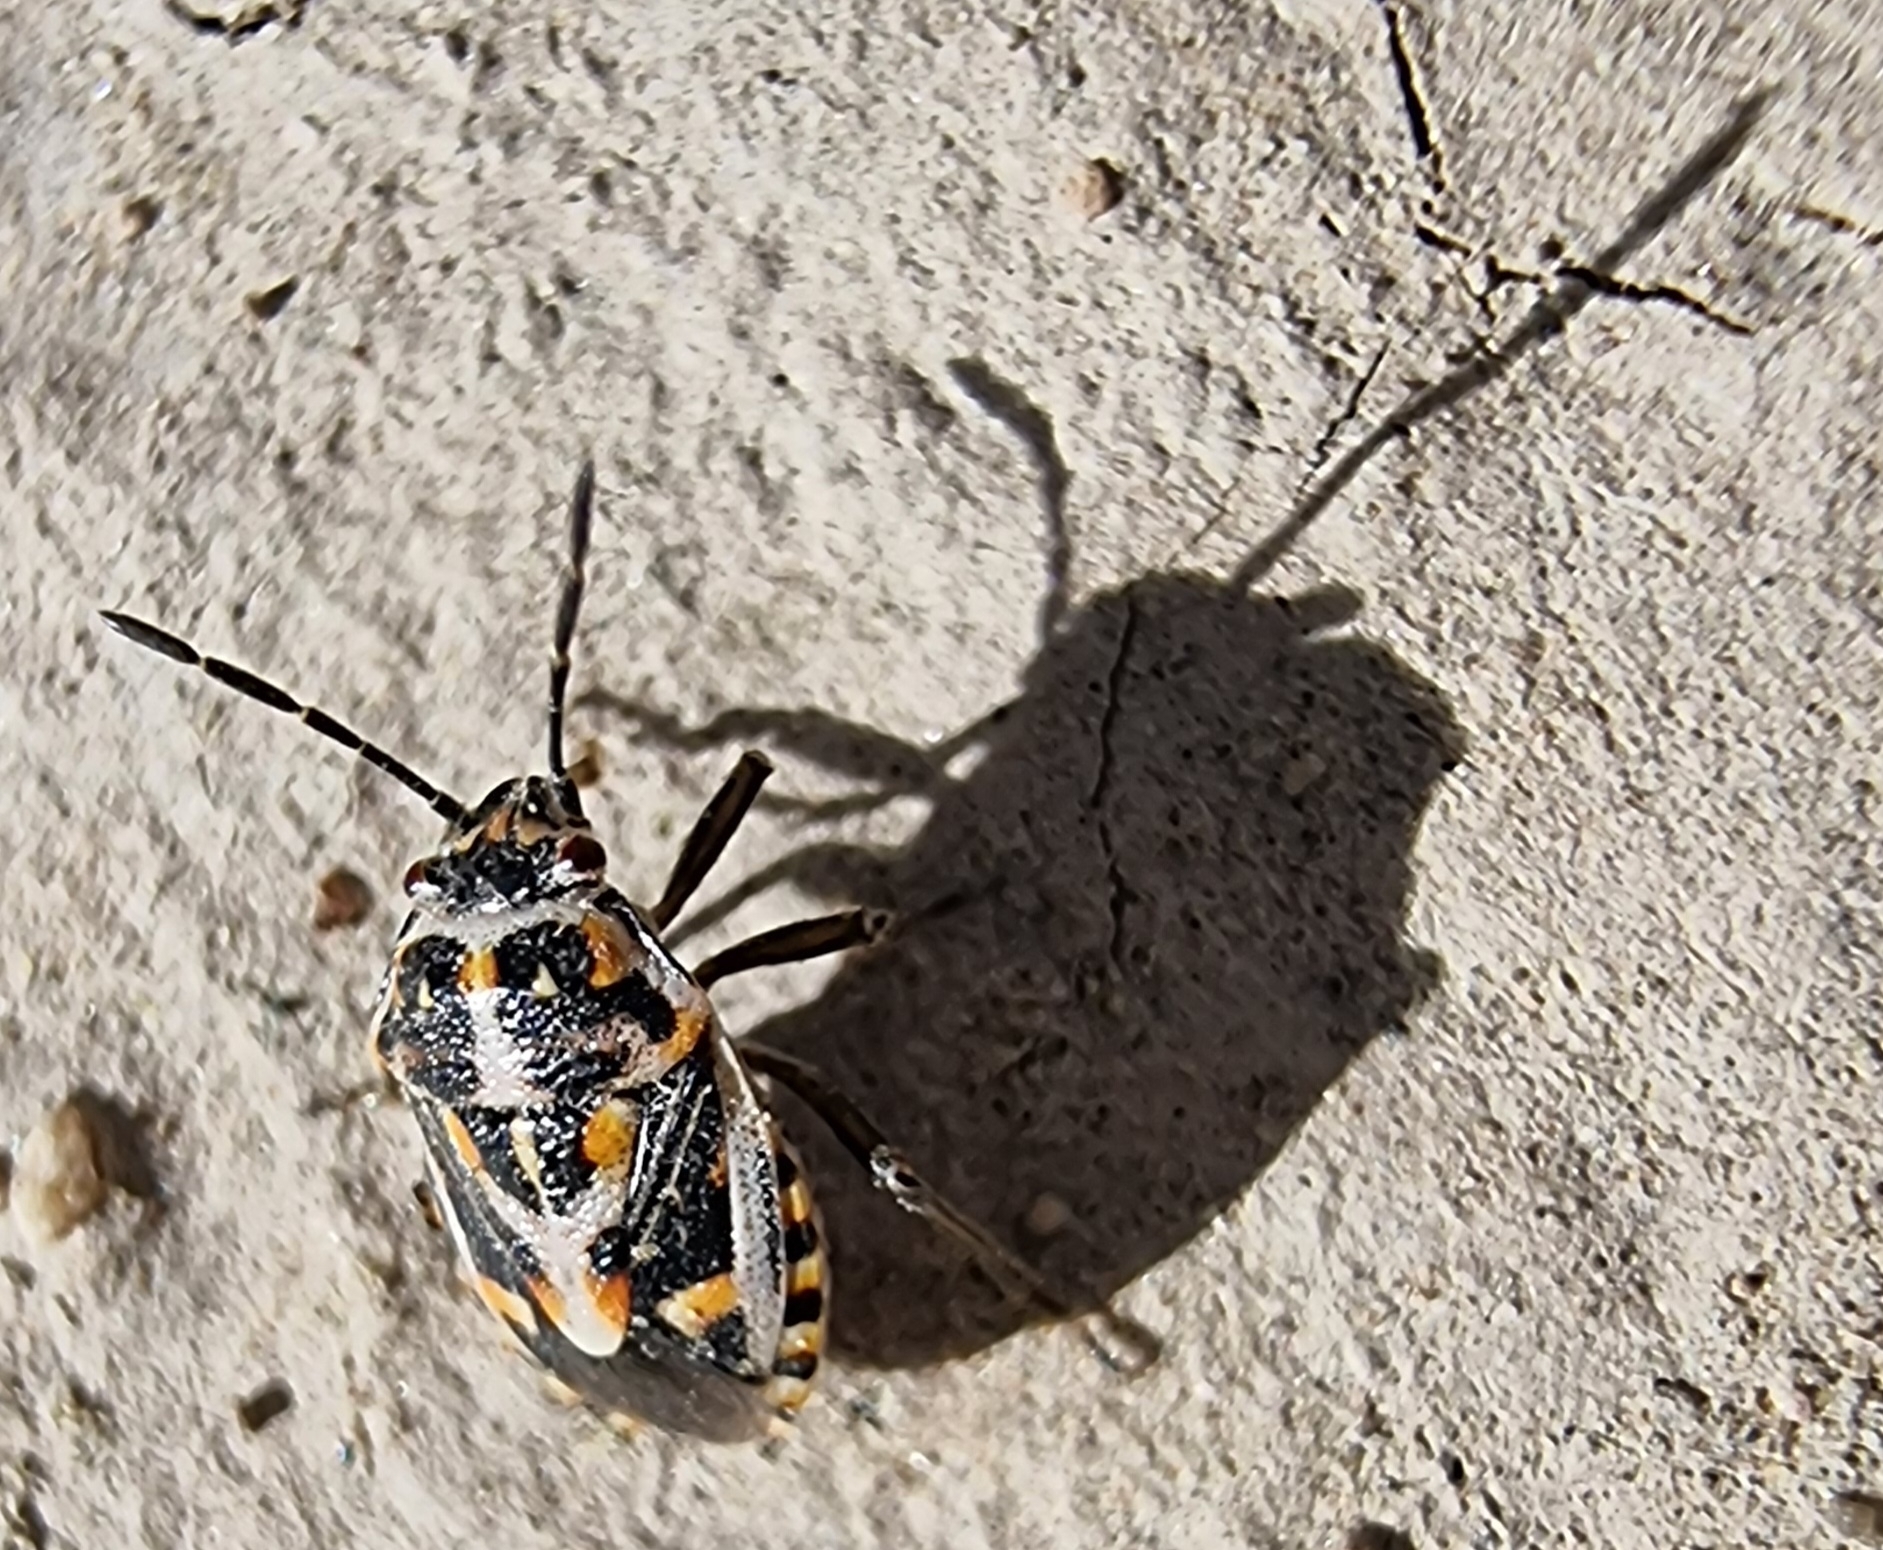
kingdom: Animalia
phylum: Arthropoda
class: Insecta
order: Hemiptera
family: Pentatomidae
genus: Bagrada
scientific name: Bagrada
